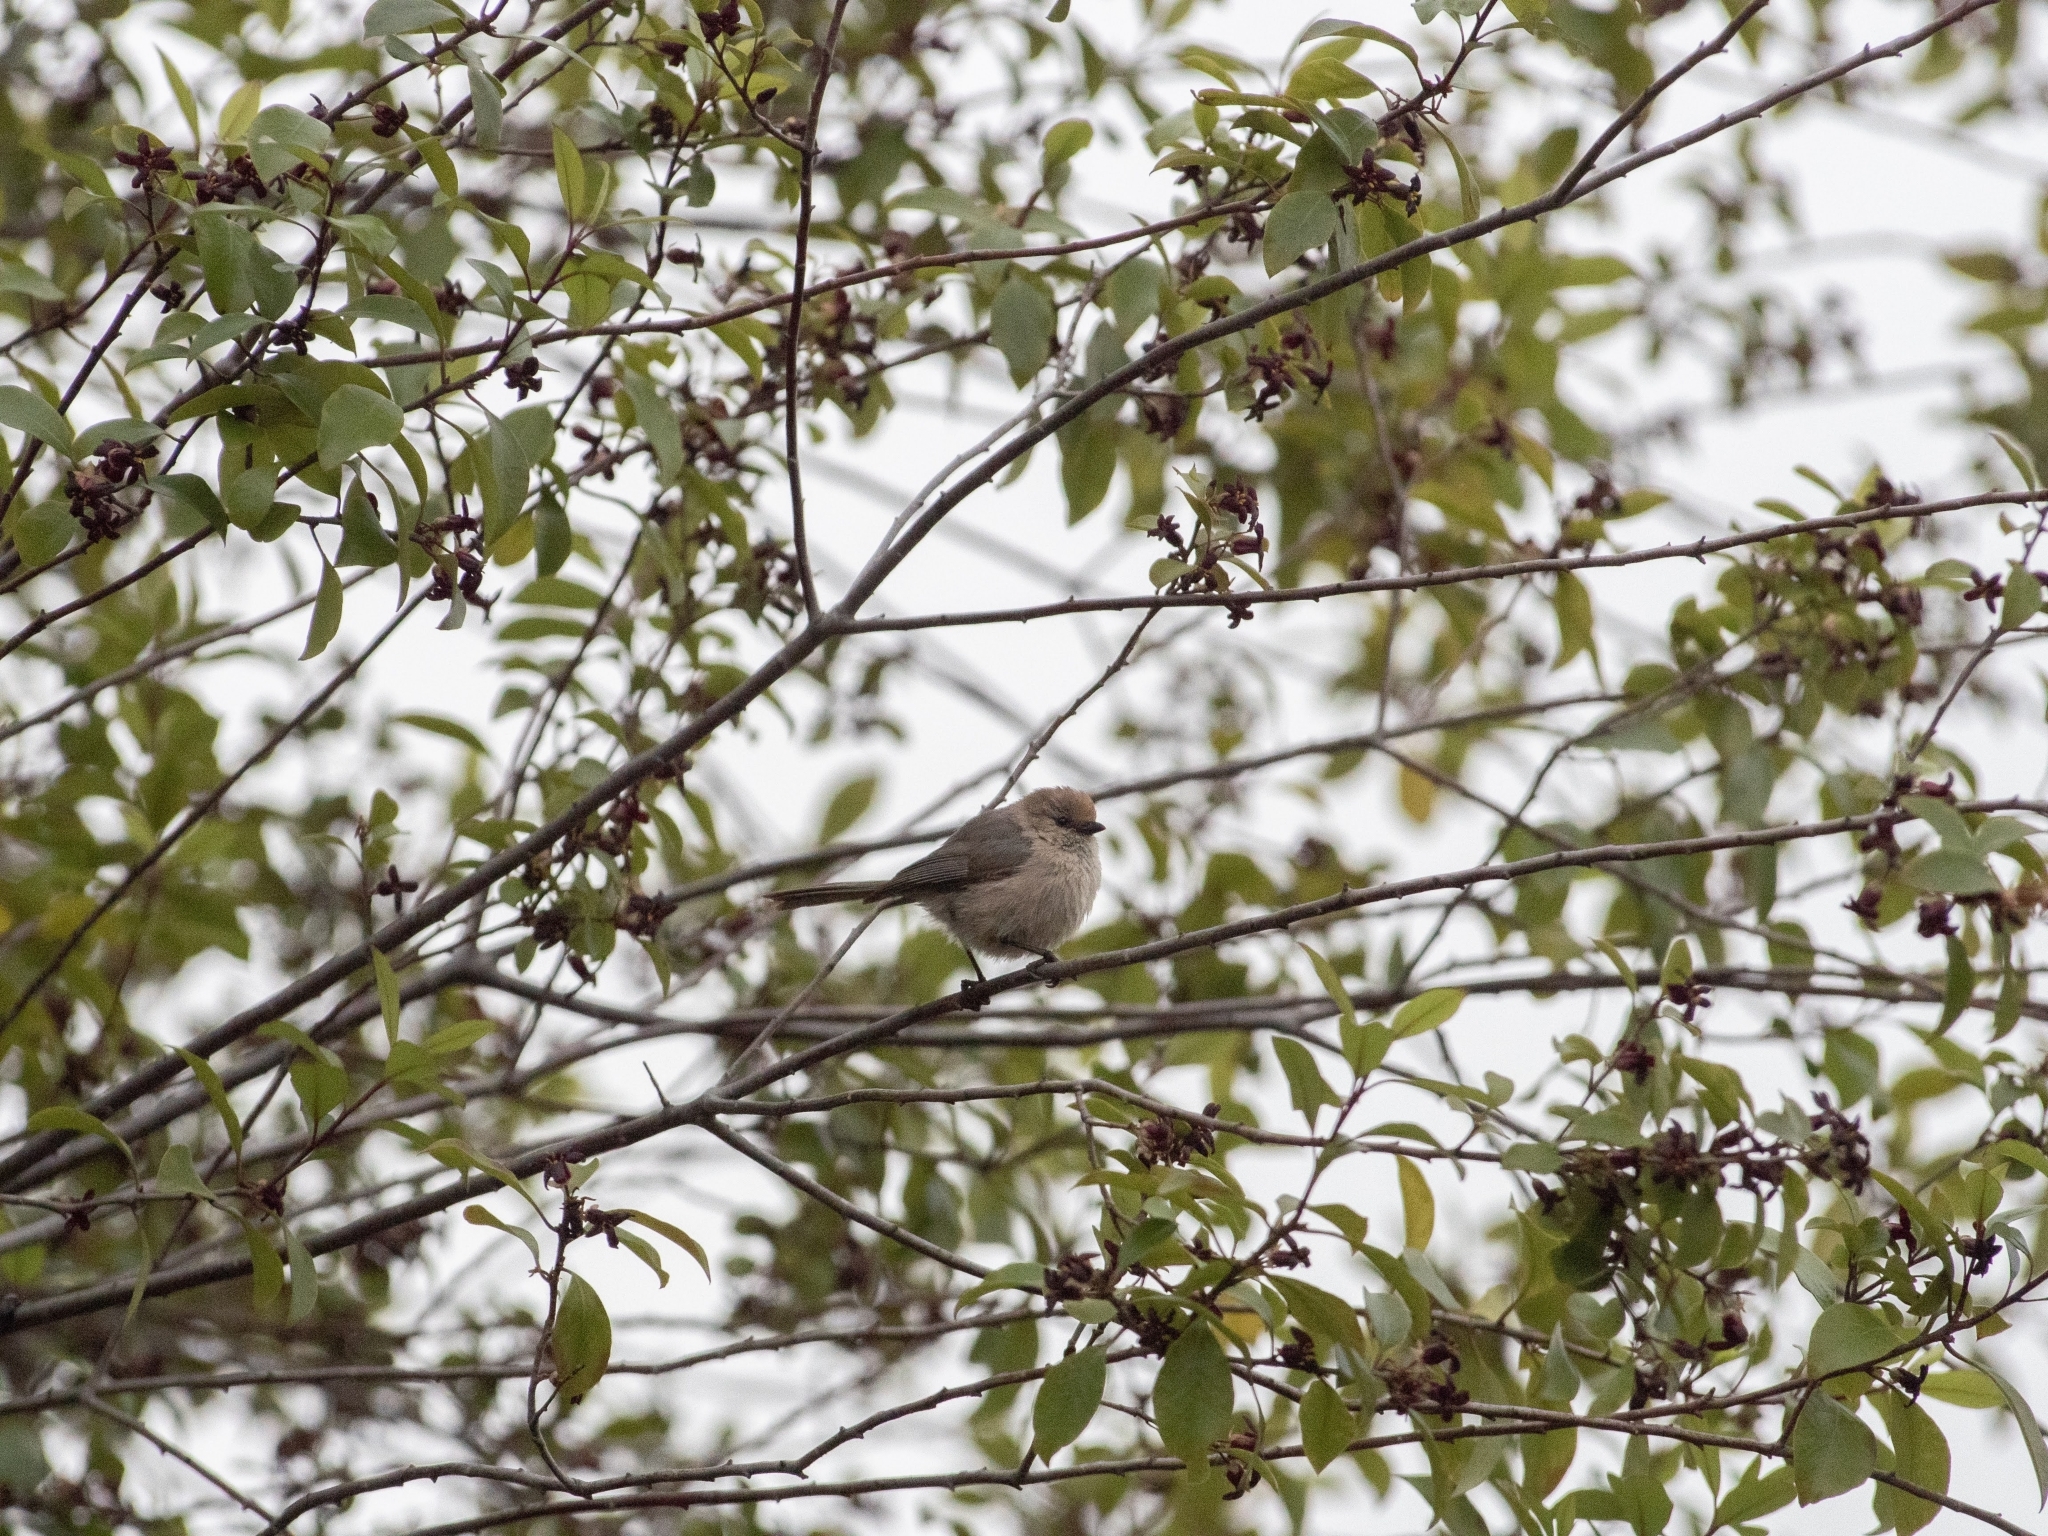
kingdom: Animalia
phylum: Chordata
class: Aves
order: Passeriformes
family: Aegithalidae
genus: Psaltriparus
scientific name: Psaltriparus minimus
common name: American bushtit
